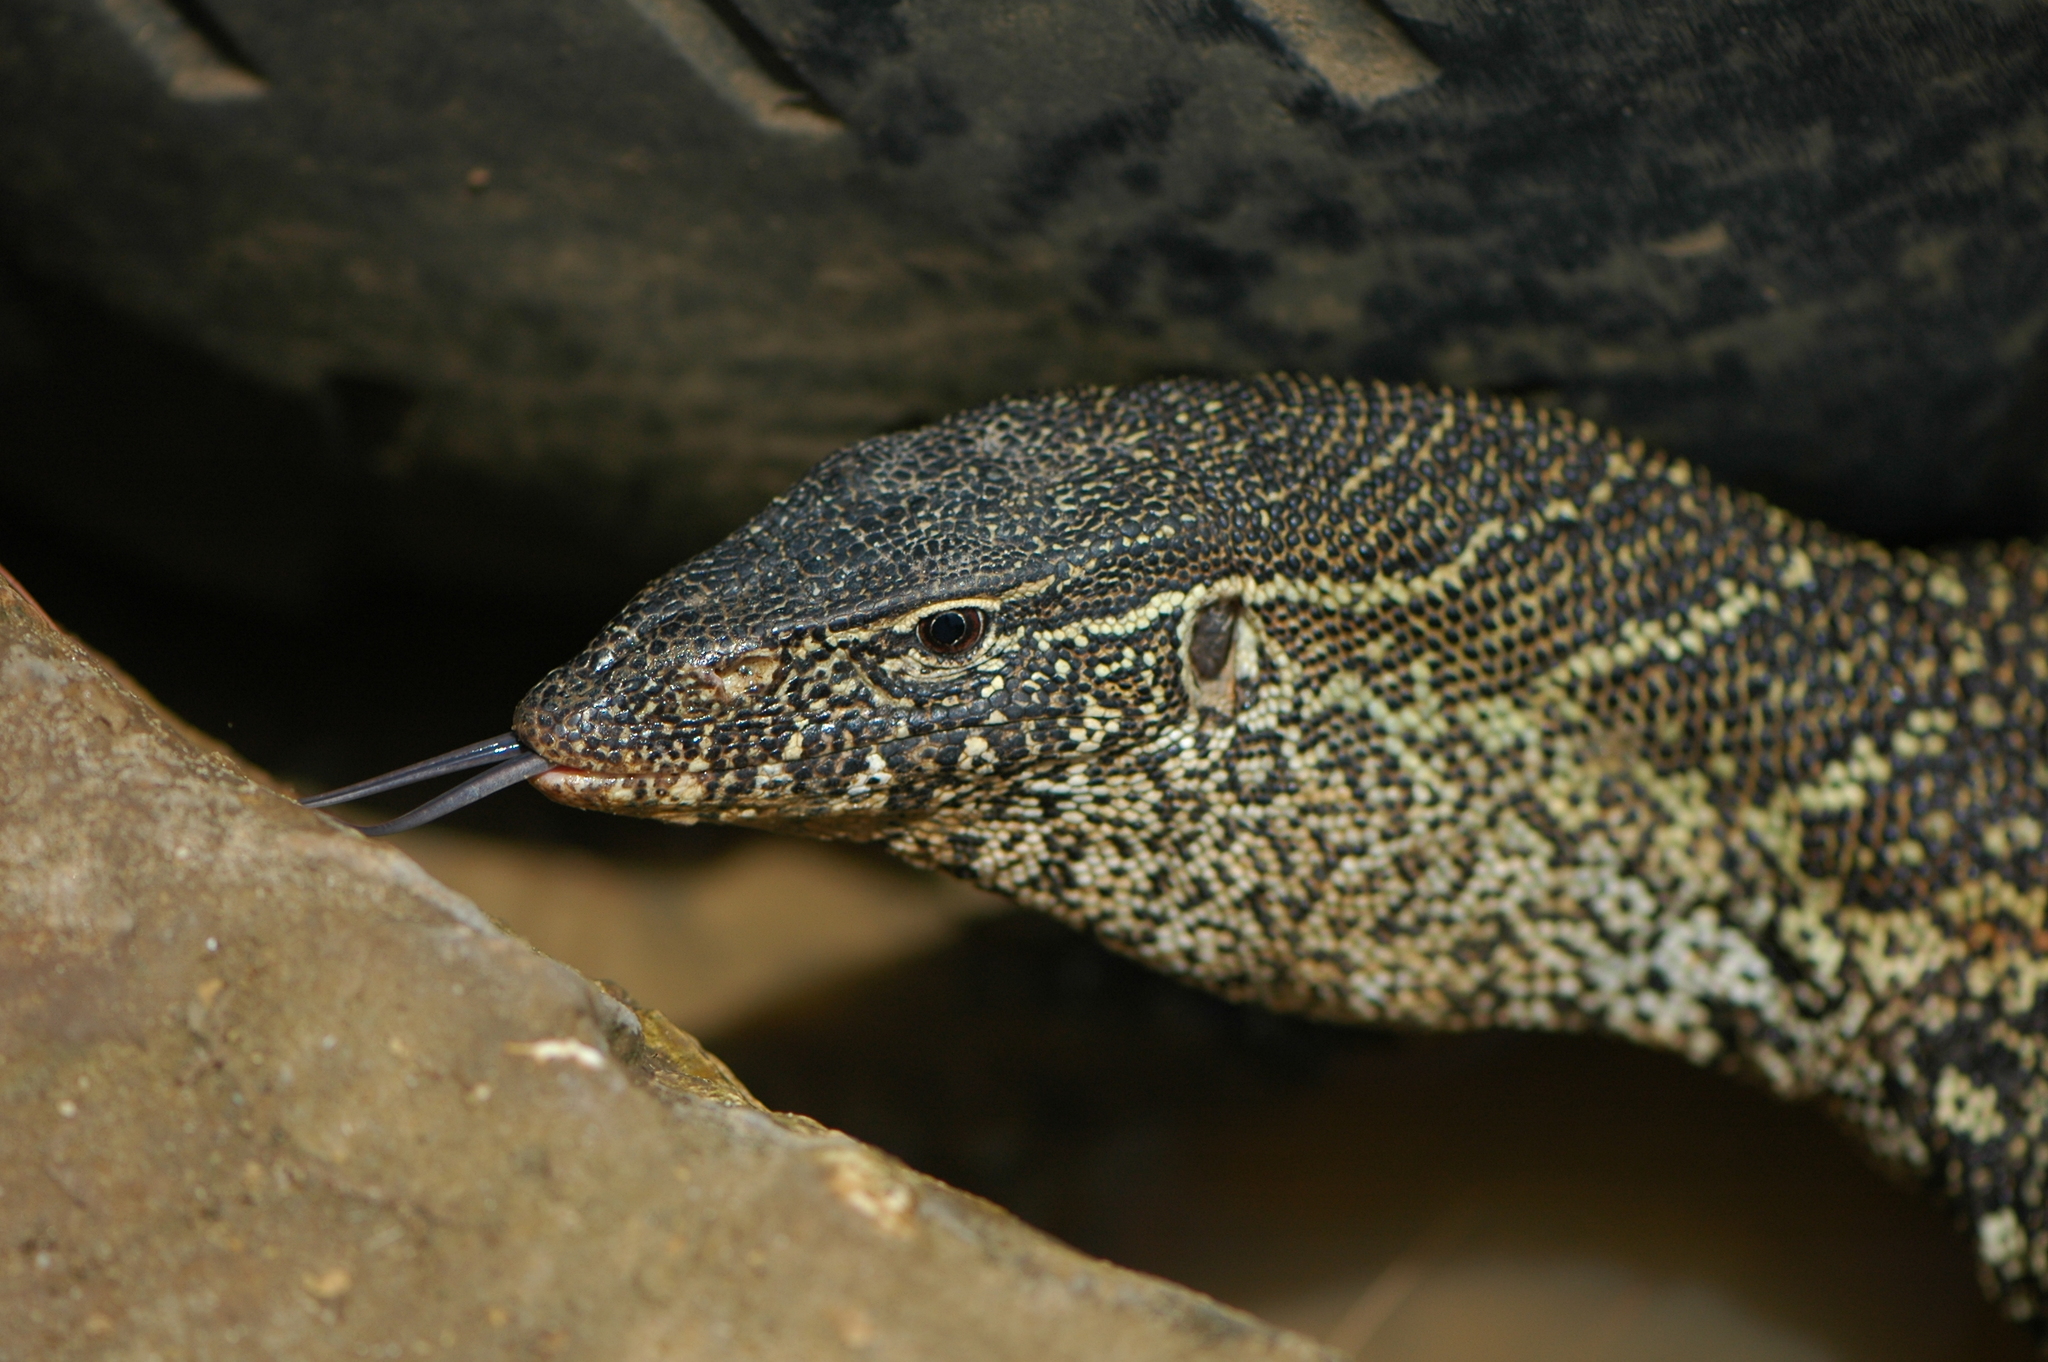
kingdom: Animalia
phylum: Chordata
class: Squamata
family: Varanidae
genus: Varanus
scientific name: Varanus niloticus
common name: Nile monitor
